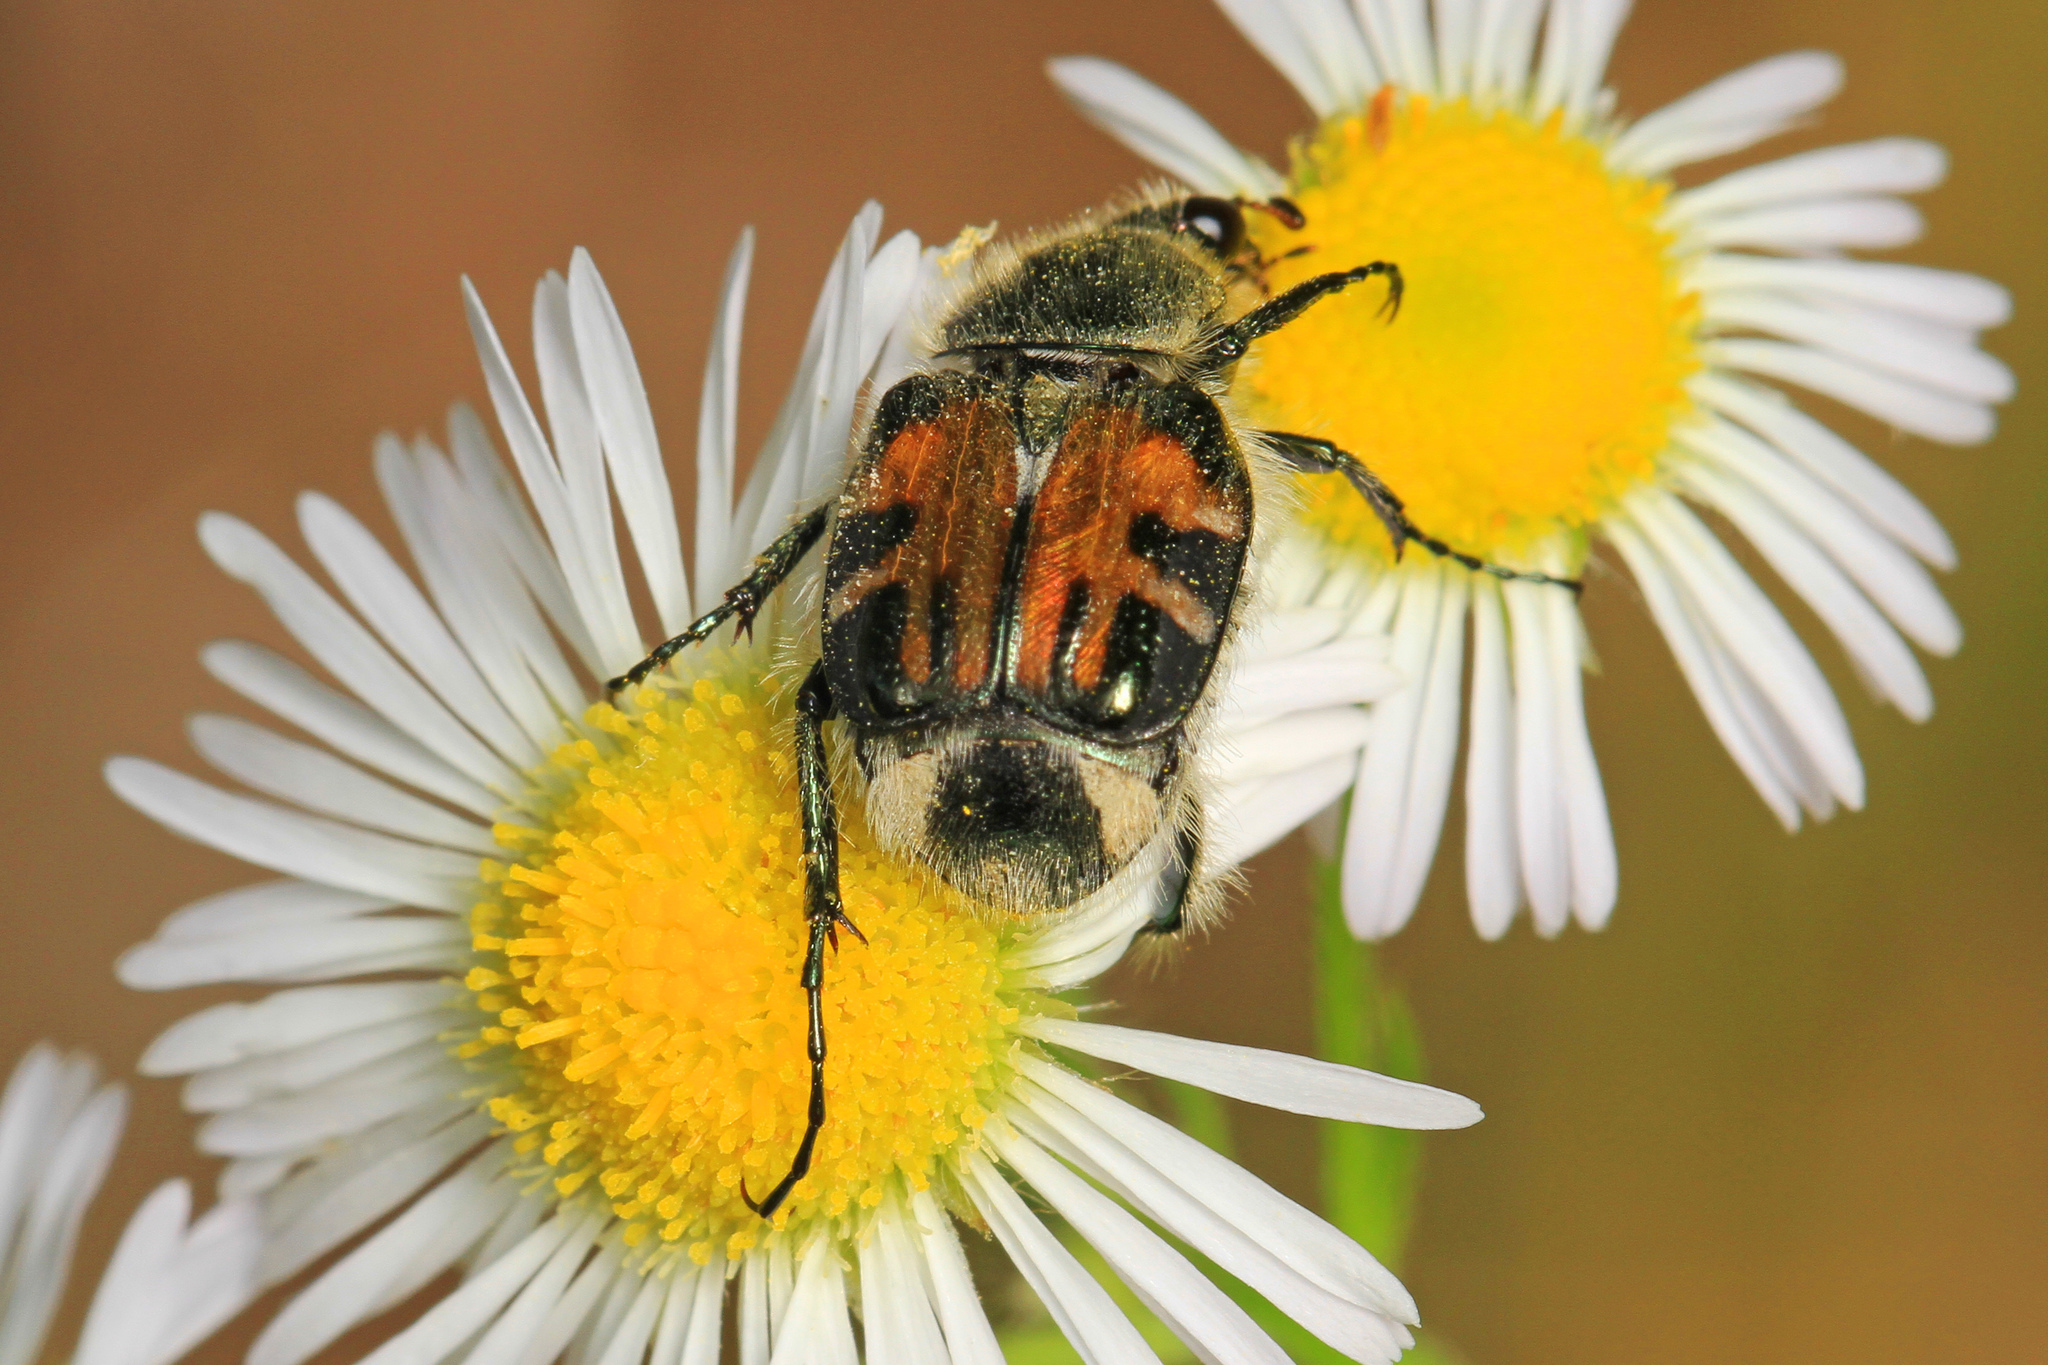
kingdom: Animalia
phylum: Arthropoda
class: Insecta
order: Coleoptera
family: Scarabaeidae
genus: Trichiotinus
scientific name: Trichiotinus affinis
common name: Hairy flower scarab
